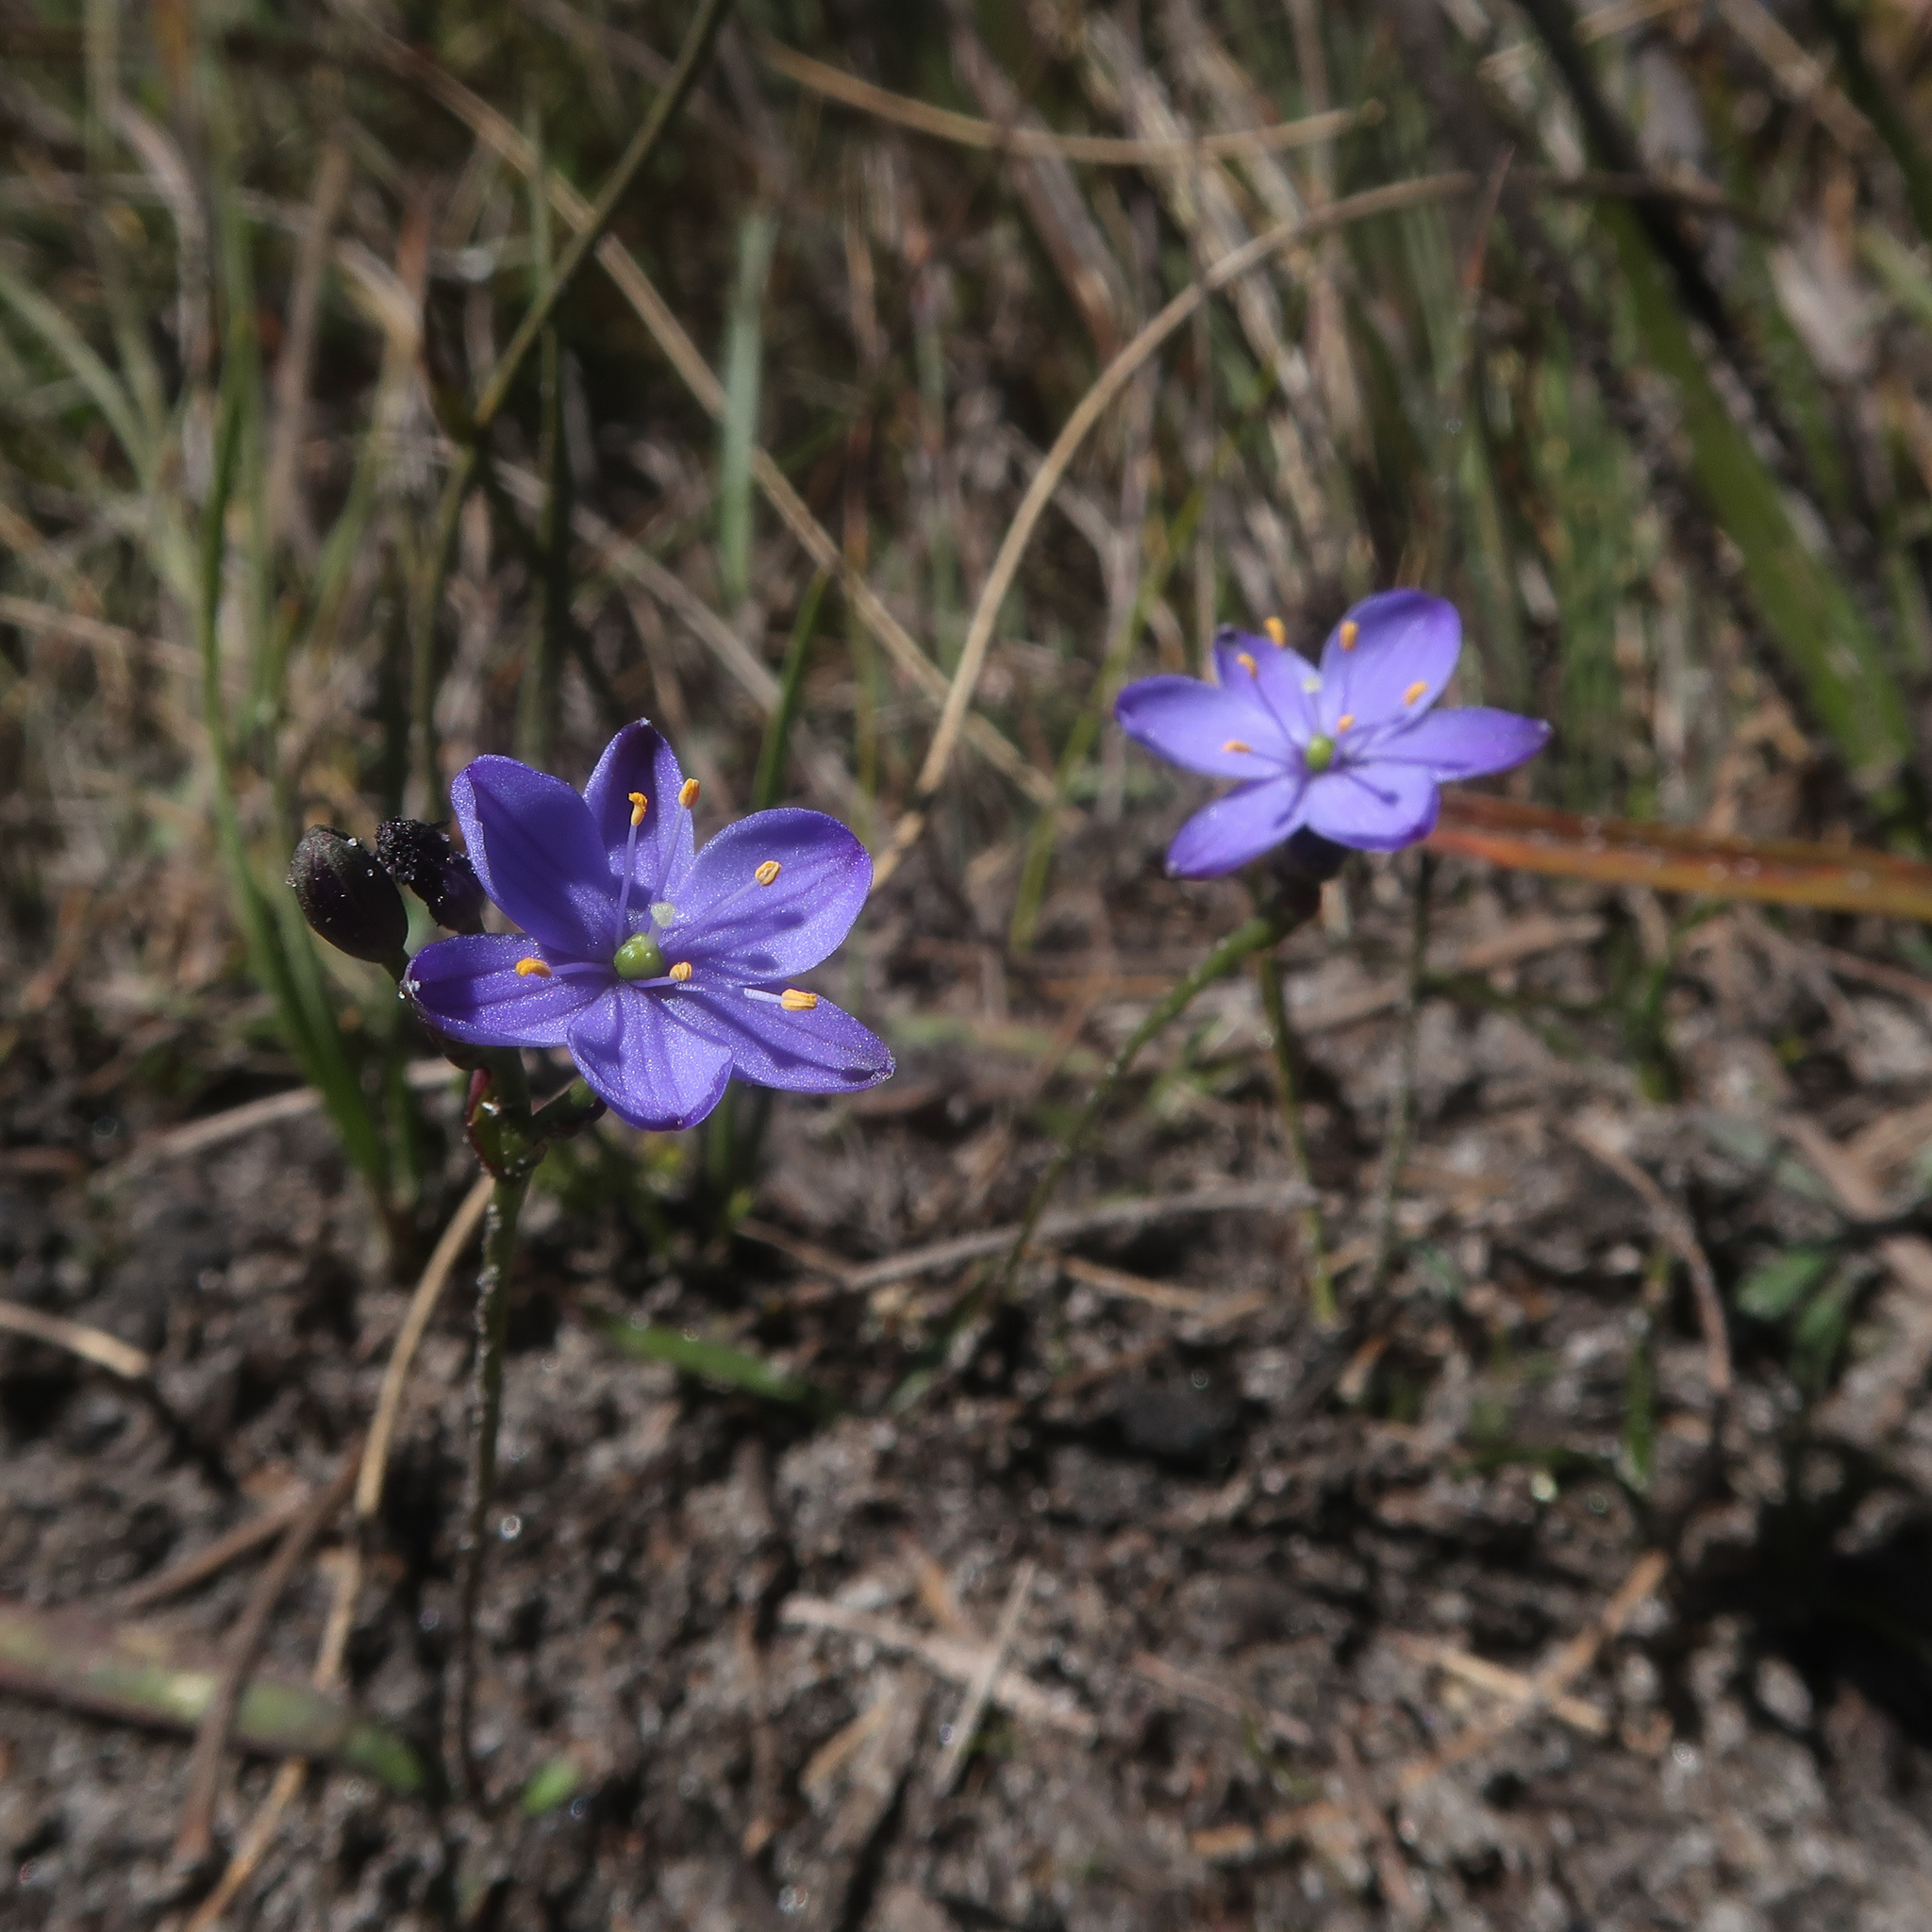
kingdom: Plantae
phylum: Tracheophyta
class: Liliopsida
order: Asparagales
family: Asphodelaceae
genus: Chamaescilla
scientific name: Chamaescilla corymbosa
